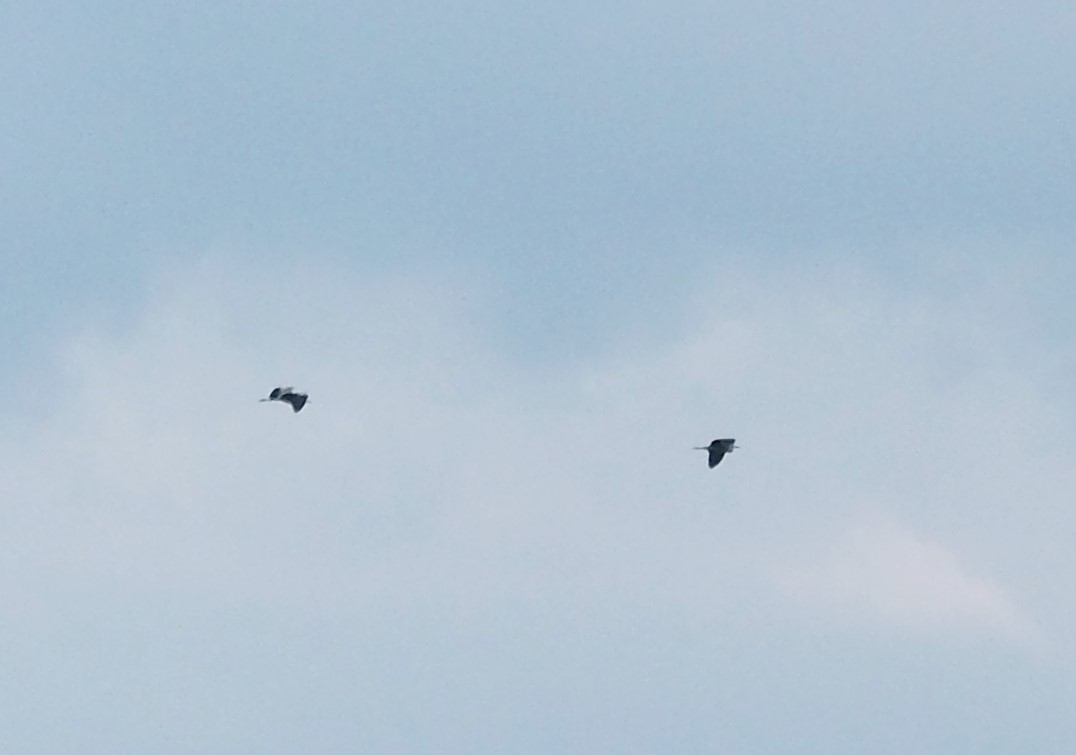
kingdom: Animalia
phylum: Chordata
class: Aves
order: Pelecaniformes
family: Ardeidae
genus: Ardea
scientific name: Ardea cinerea
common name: Grey heron
